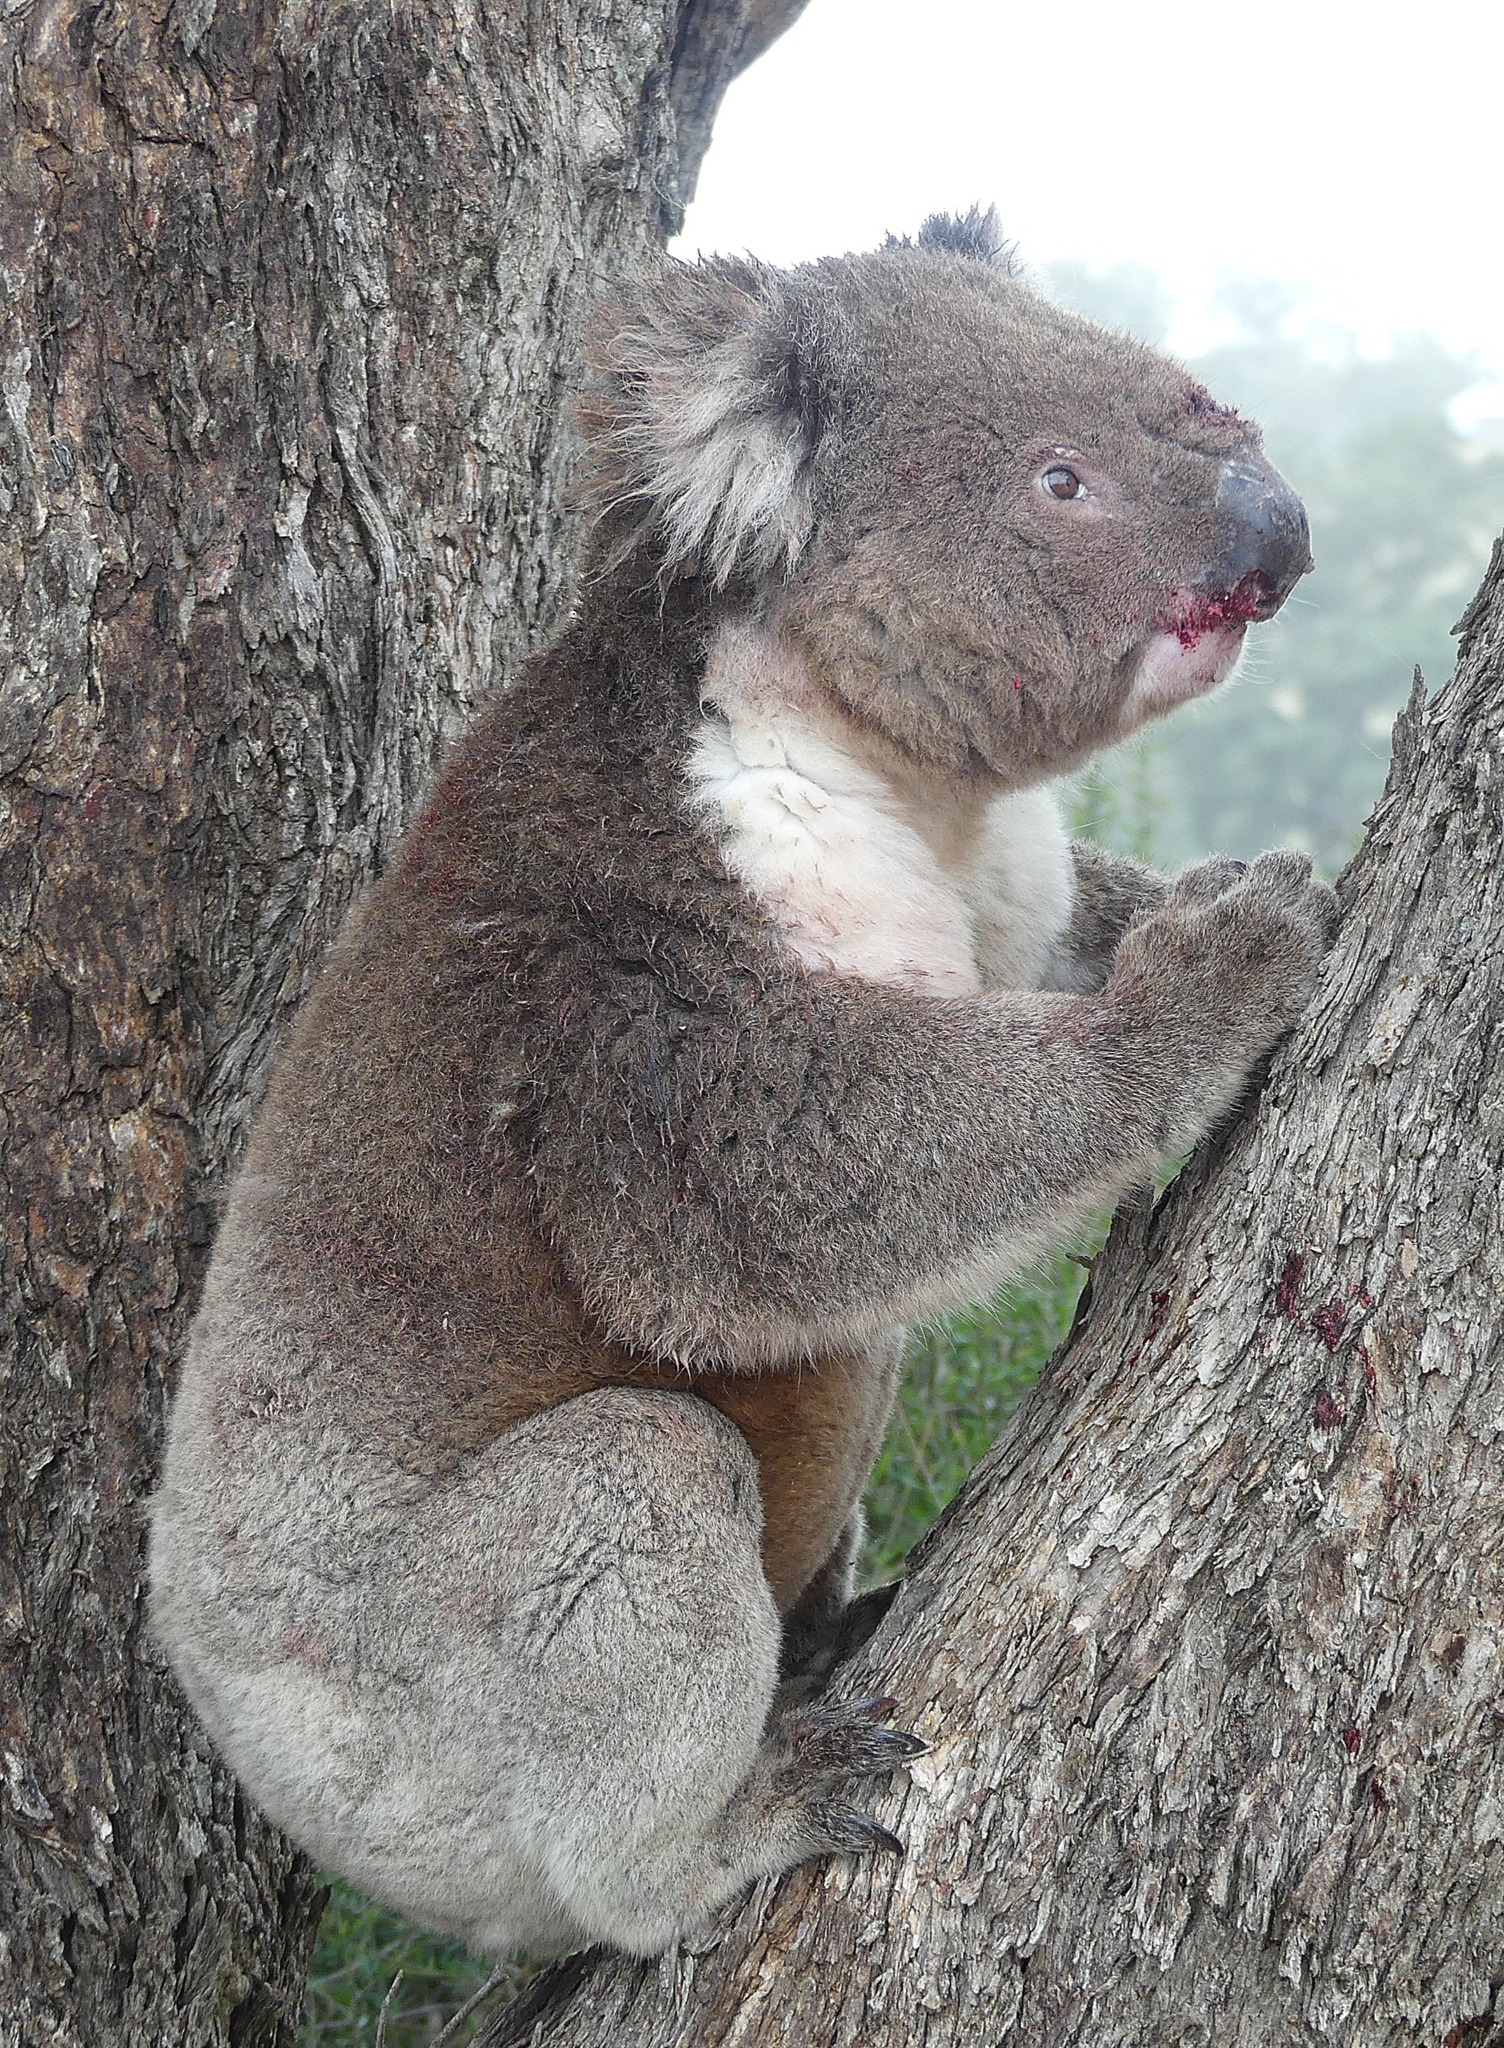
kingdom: Animalia
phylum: Chordata
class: Mammalia
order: Diprotodontia
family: Phascolarctidae
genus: Phascolarctos
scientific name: Phascolarctos cinereus
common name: Koala
